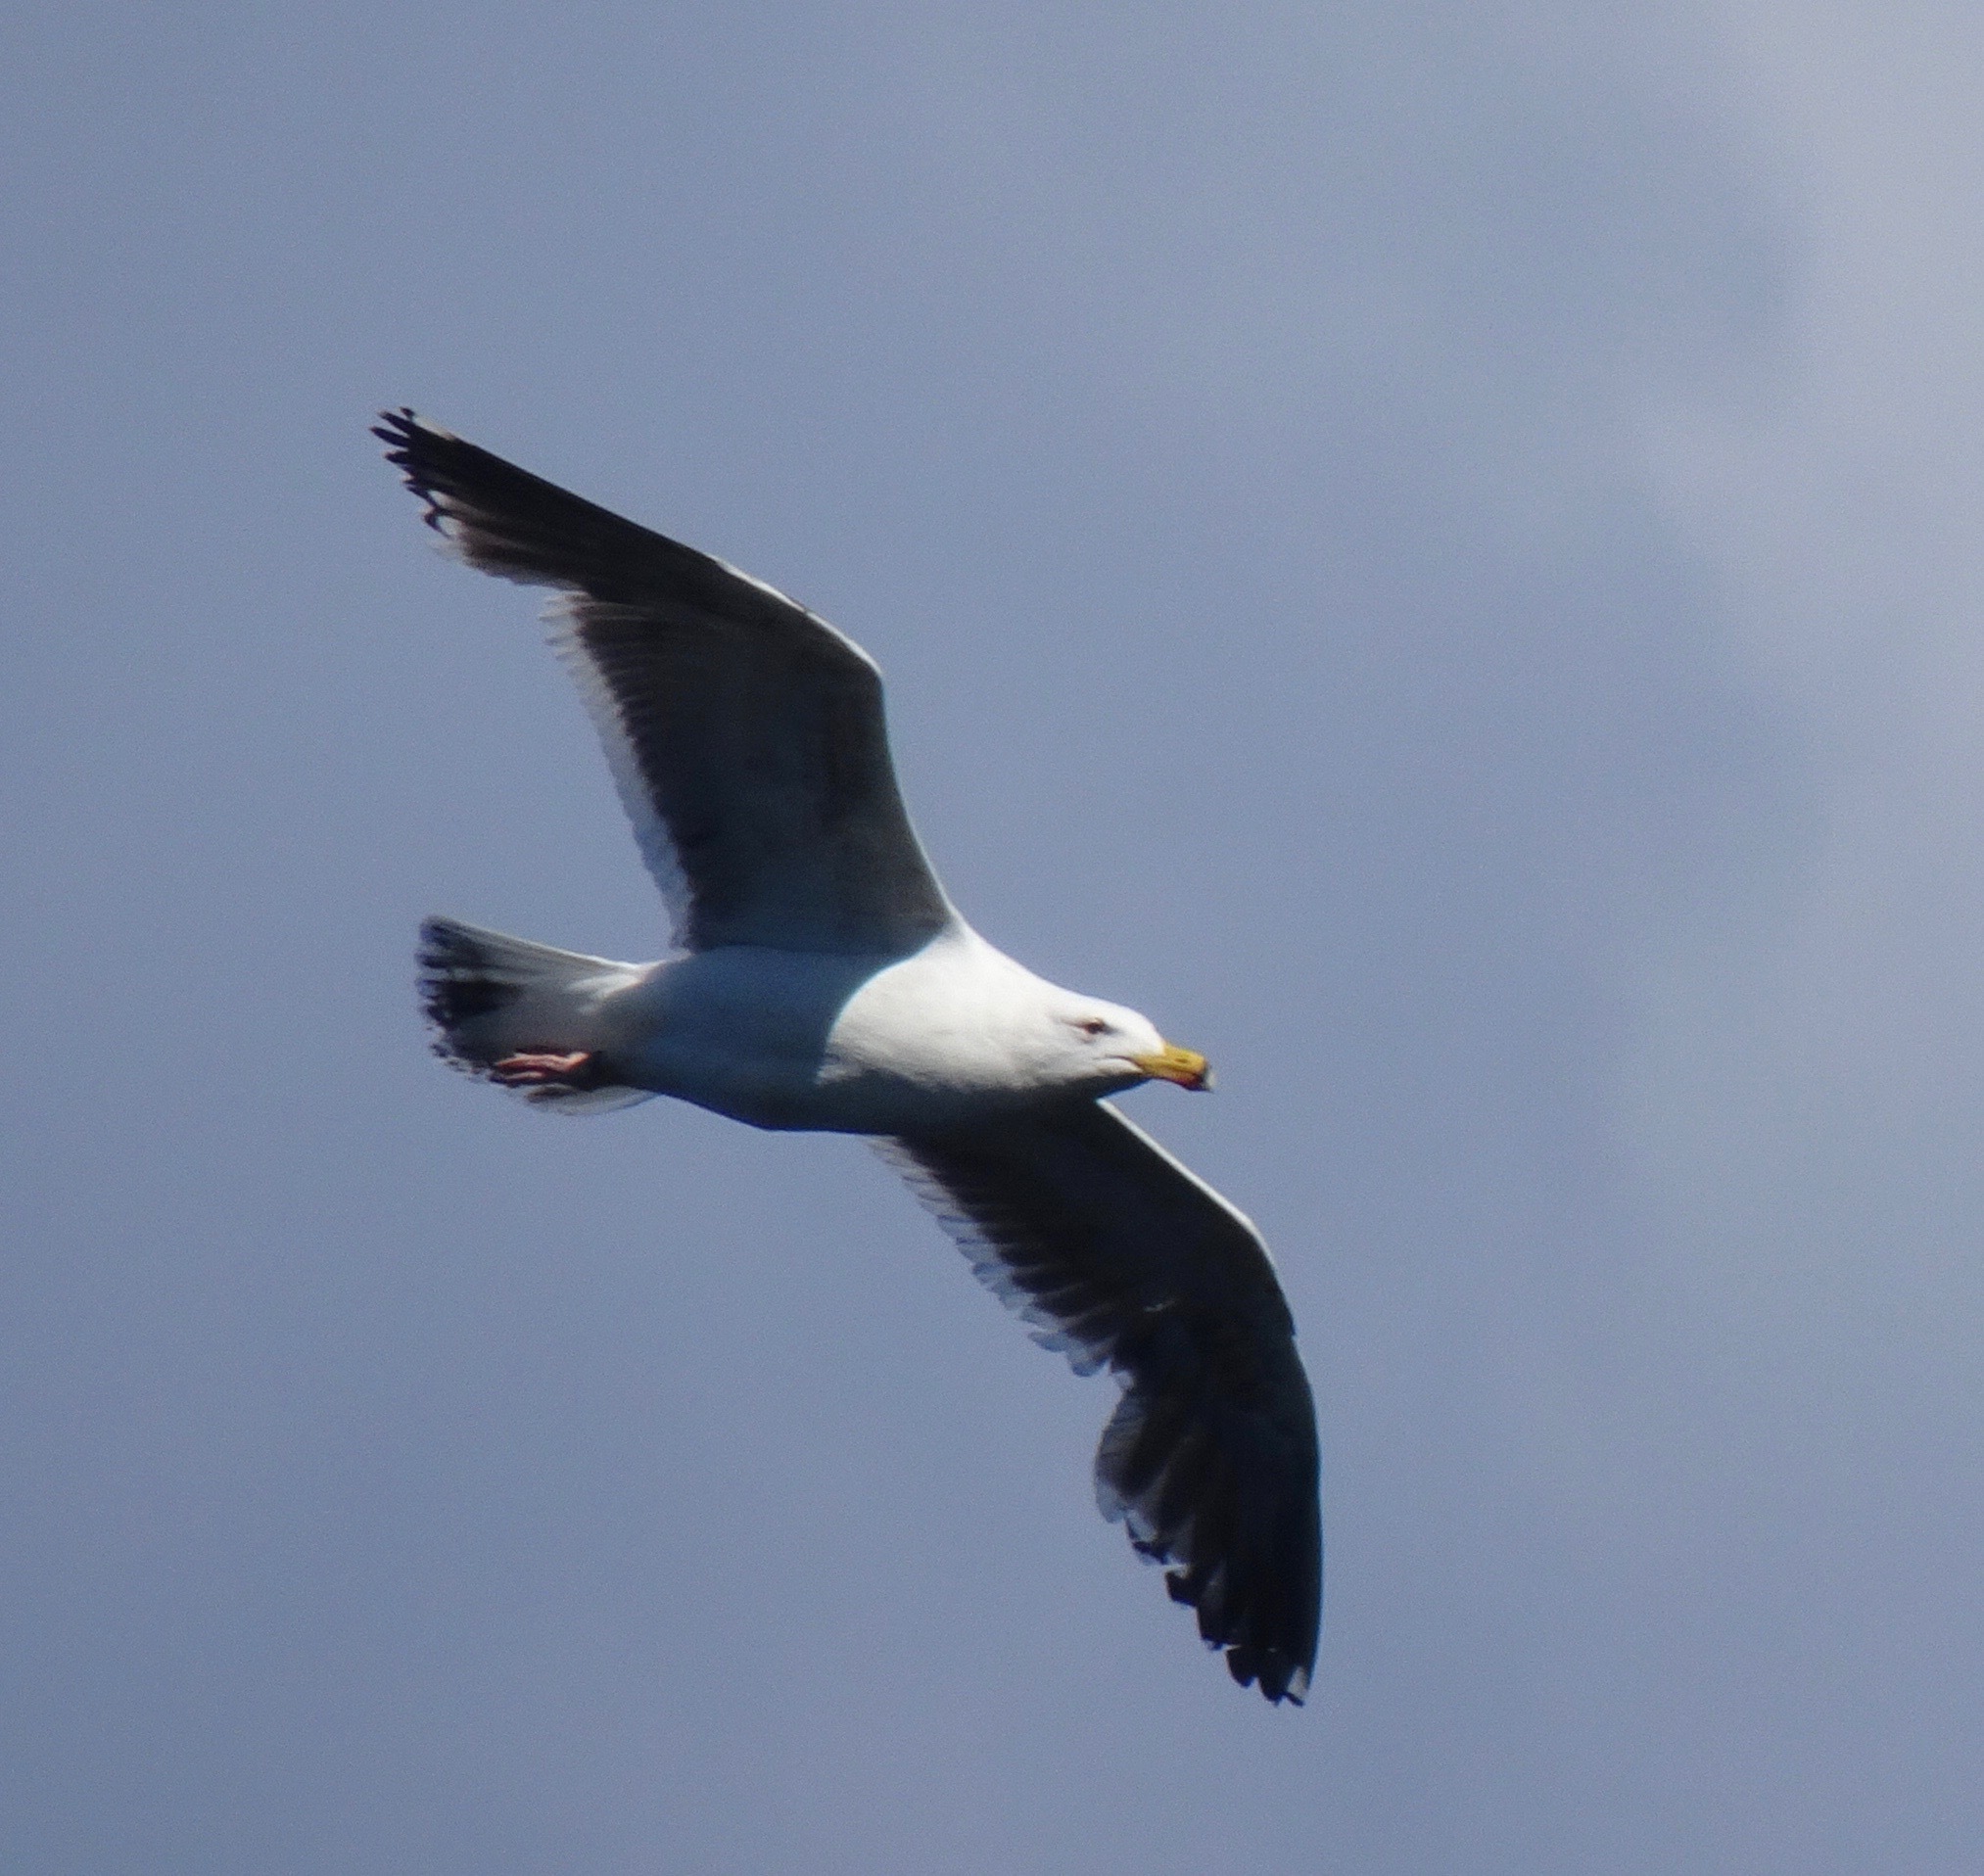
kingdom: Animalia
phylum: Chordata
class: Aves
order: Charadriiformes
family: Laridae
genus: Larus
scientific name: Larus marinus
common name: Great black-backed gull
